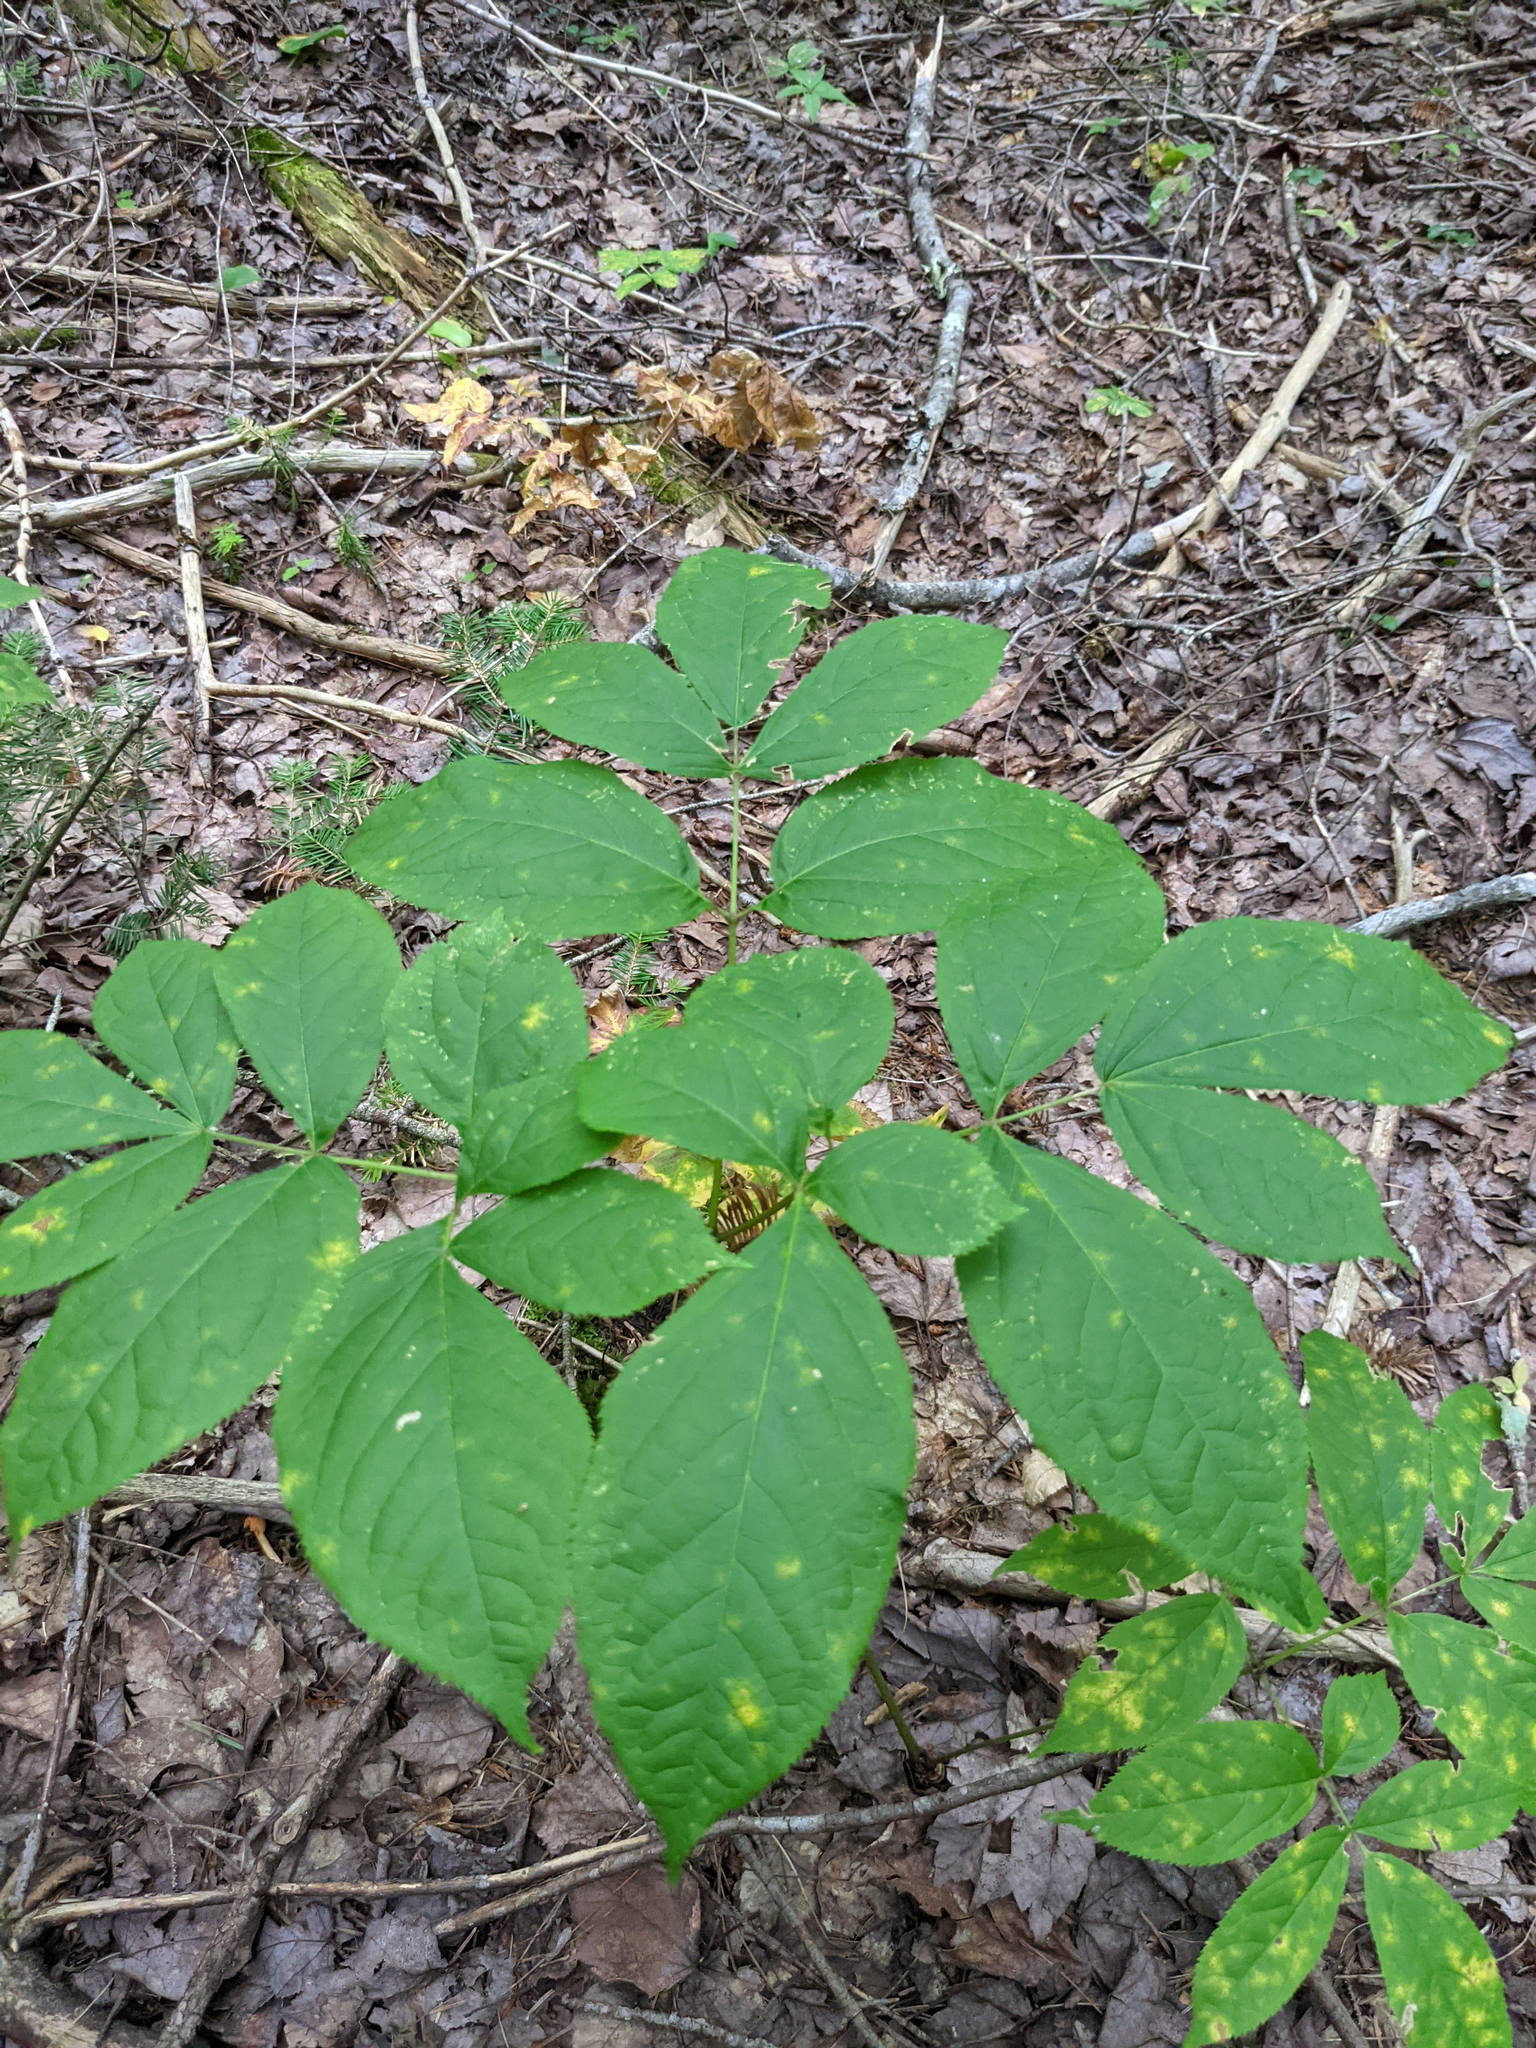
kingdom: Plantae
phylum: Tracheophyta
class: Magnoliopsida
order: Apiales
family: Araliaceae
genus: Aralia
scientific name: Aralia nudicaulis
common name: Wild sarsaparilla
